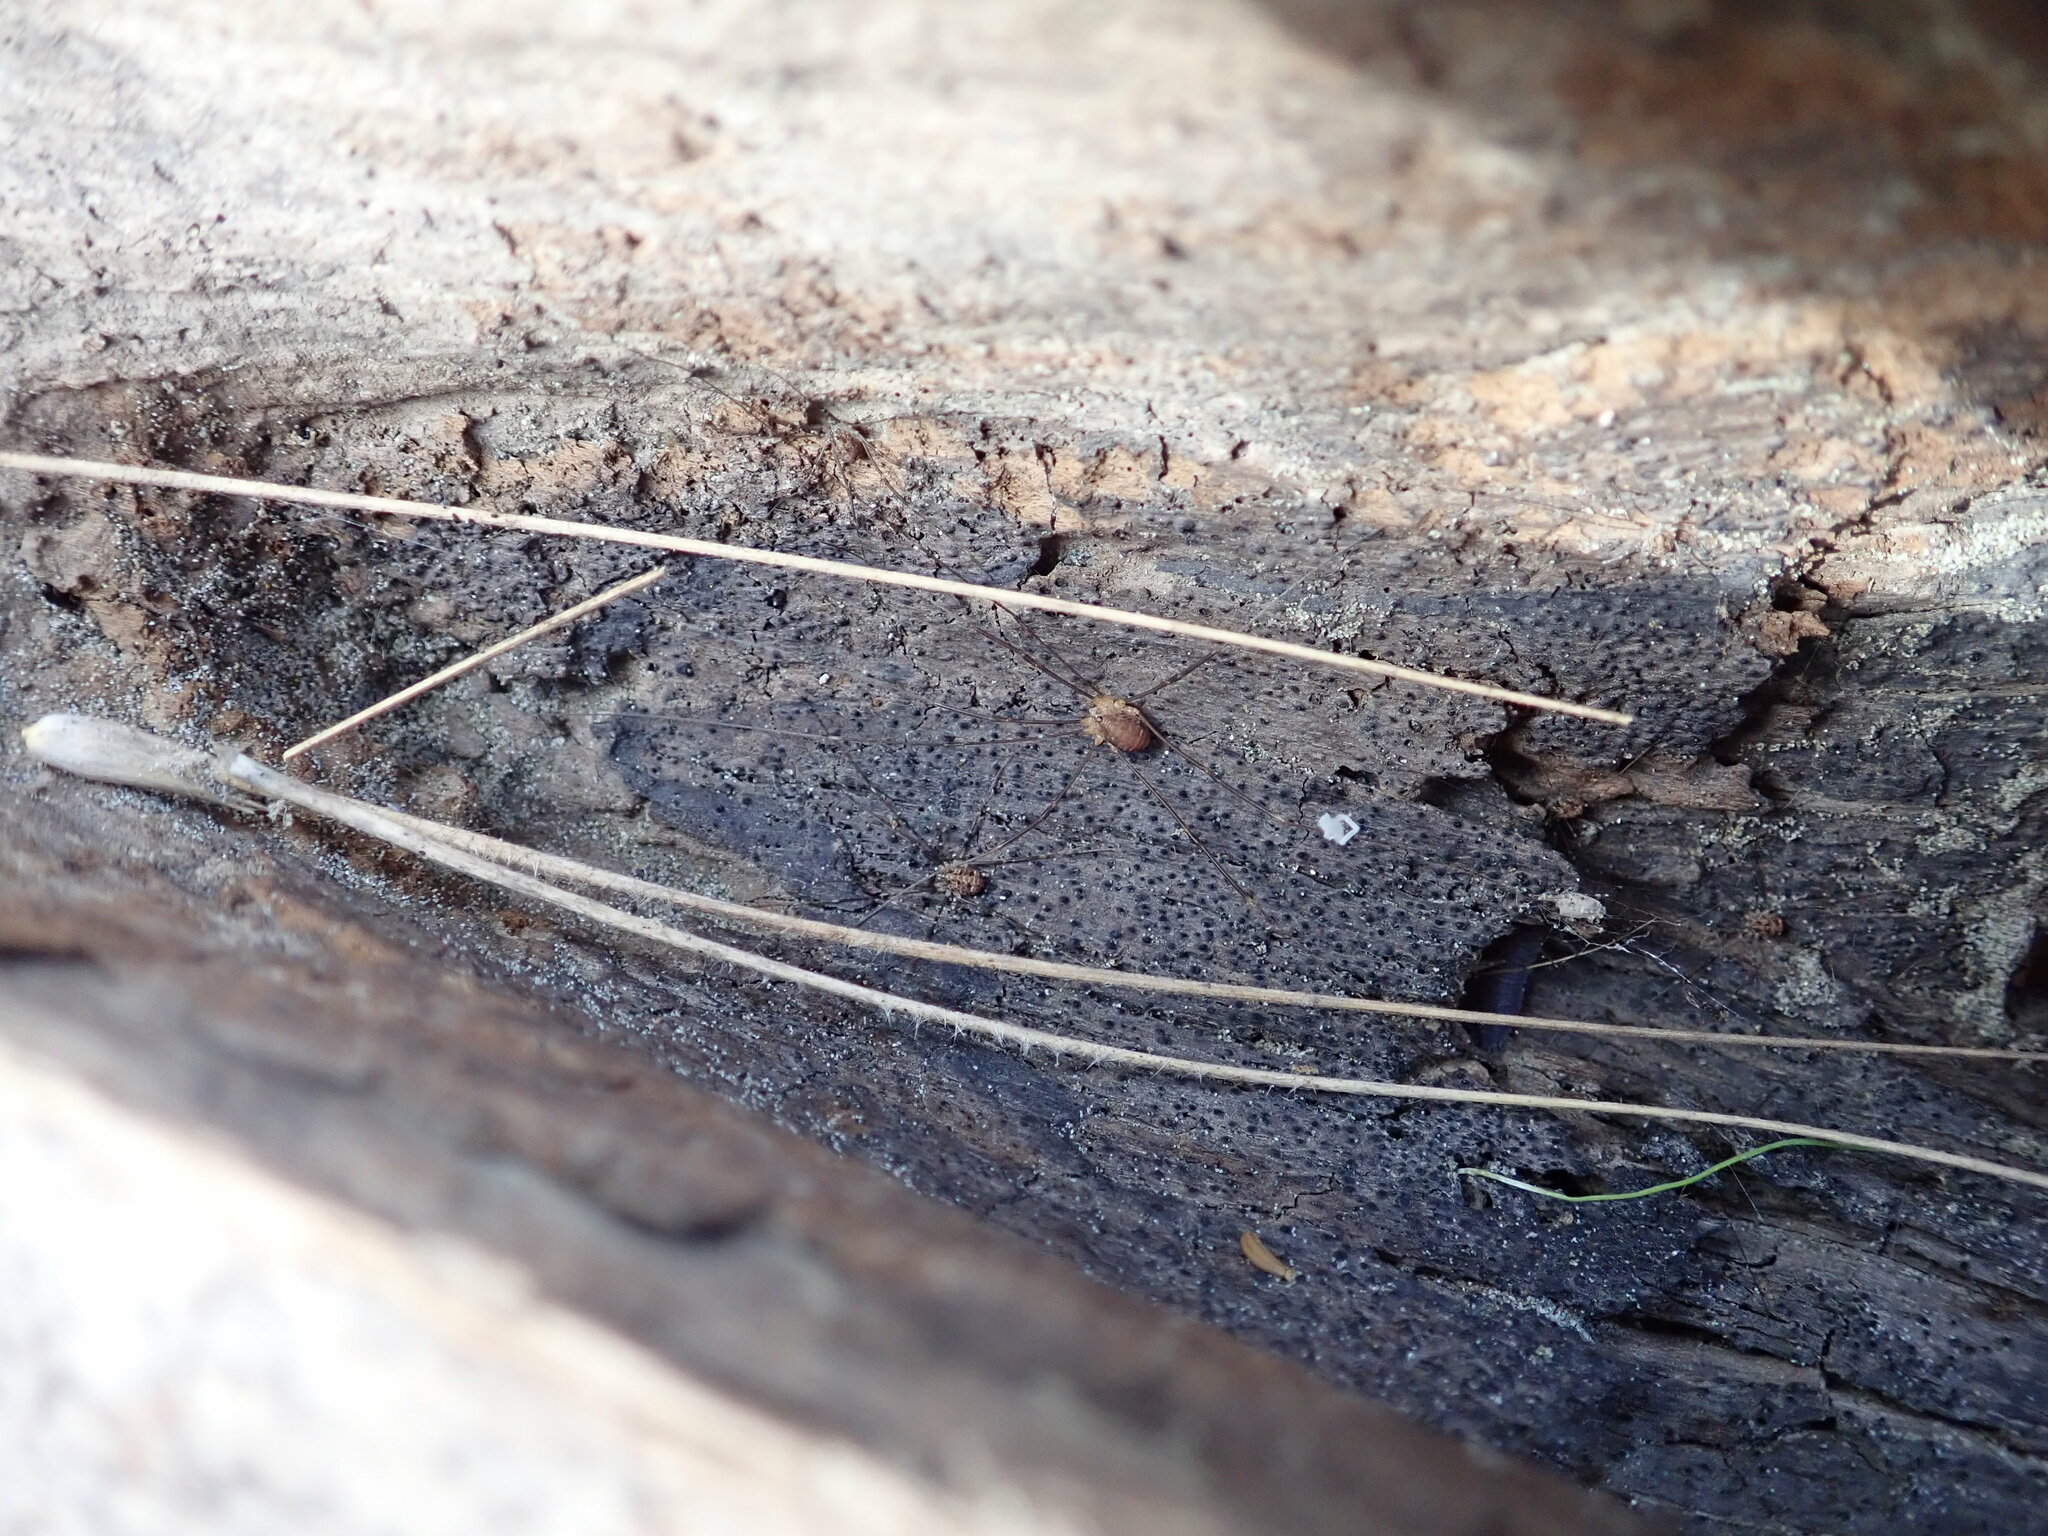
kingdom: Animalia
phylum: Arthropoda
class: Arachnida
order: Opiliones
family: Sclerosomatidae
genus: Nelima
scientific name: Nelima doriae
